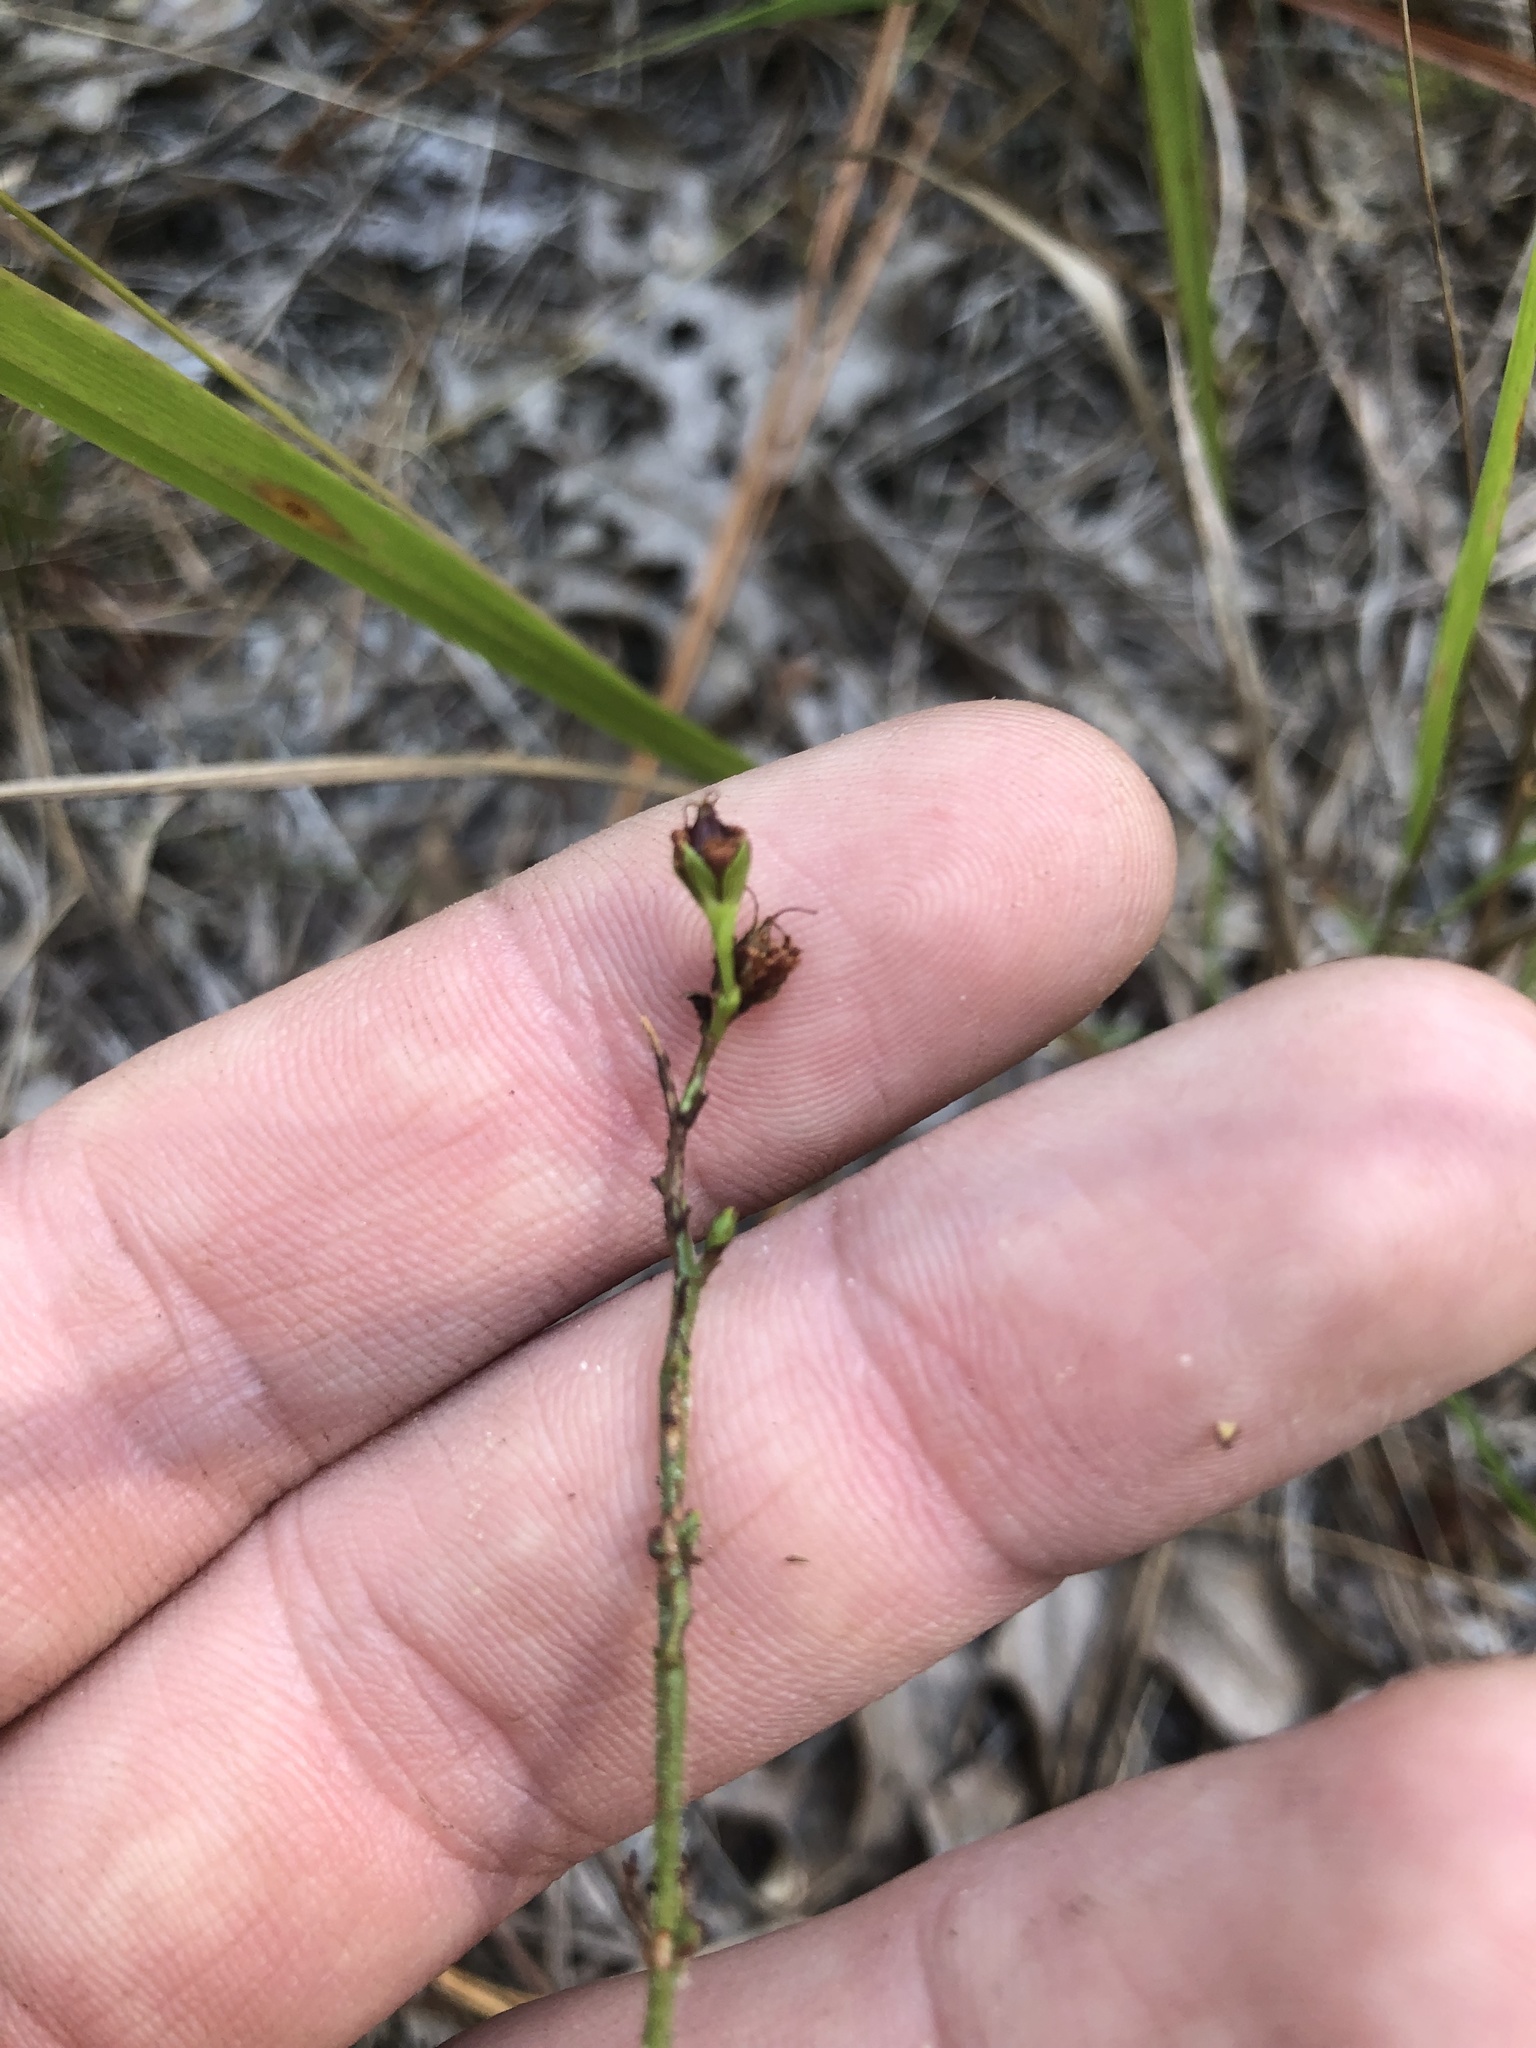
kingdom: Plantae
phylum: Tracheophyta
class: Magnoliopsida
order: Malpighiales
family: Hypericaceae
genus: Hypericum
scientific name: Hypericum setosum
